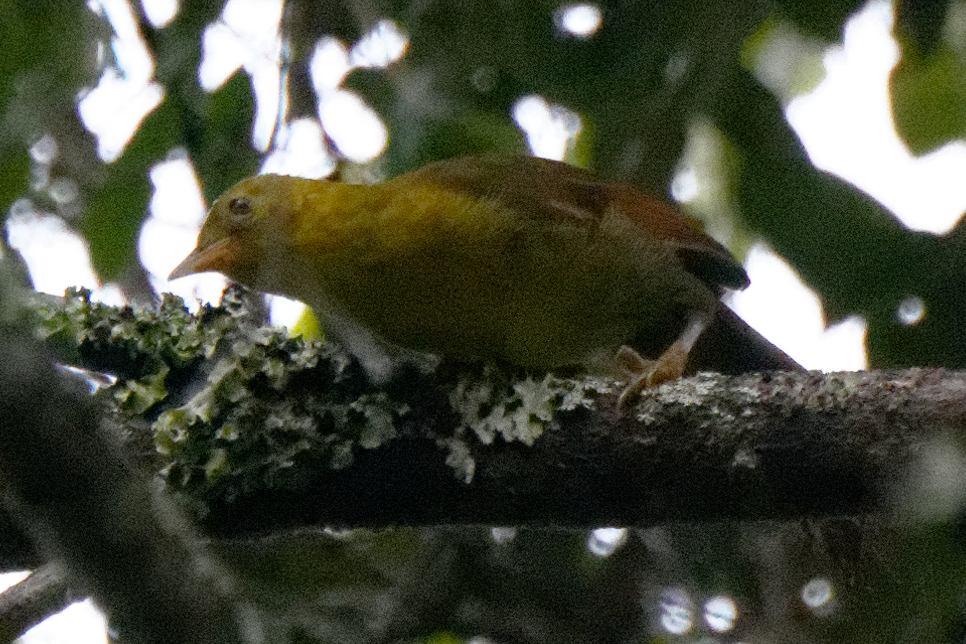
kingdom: Animalia
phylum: Chordata
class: Aves
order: Passeriformes
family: Pycnonotidae
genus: Malia
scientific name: Malia grata
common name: Malia
